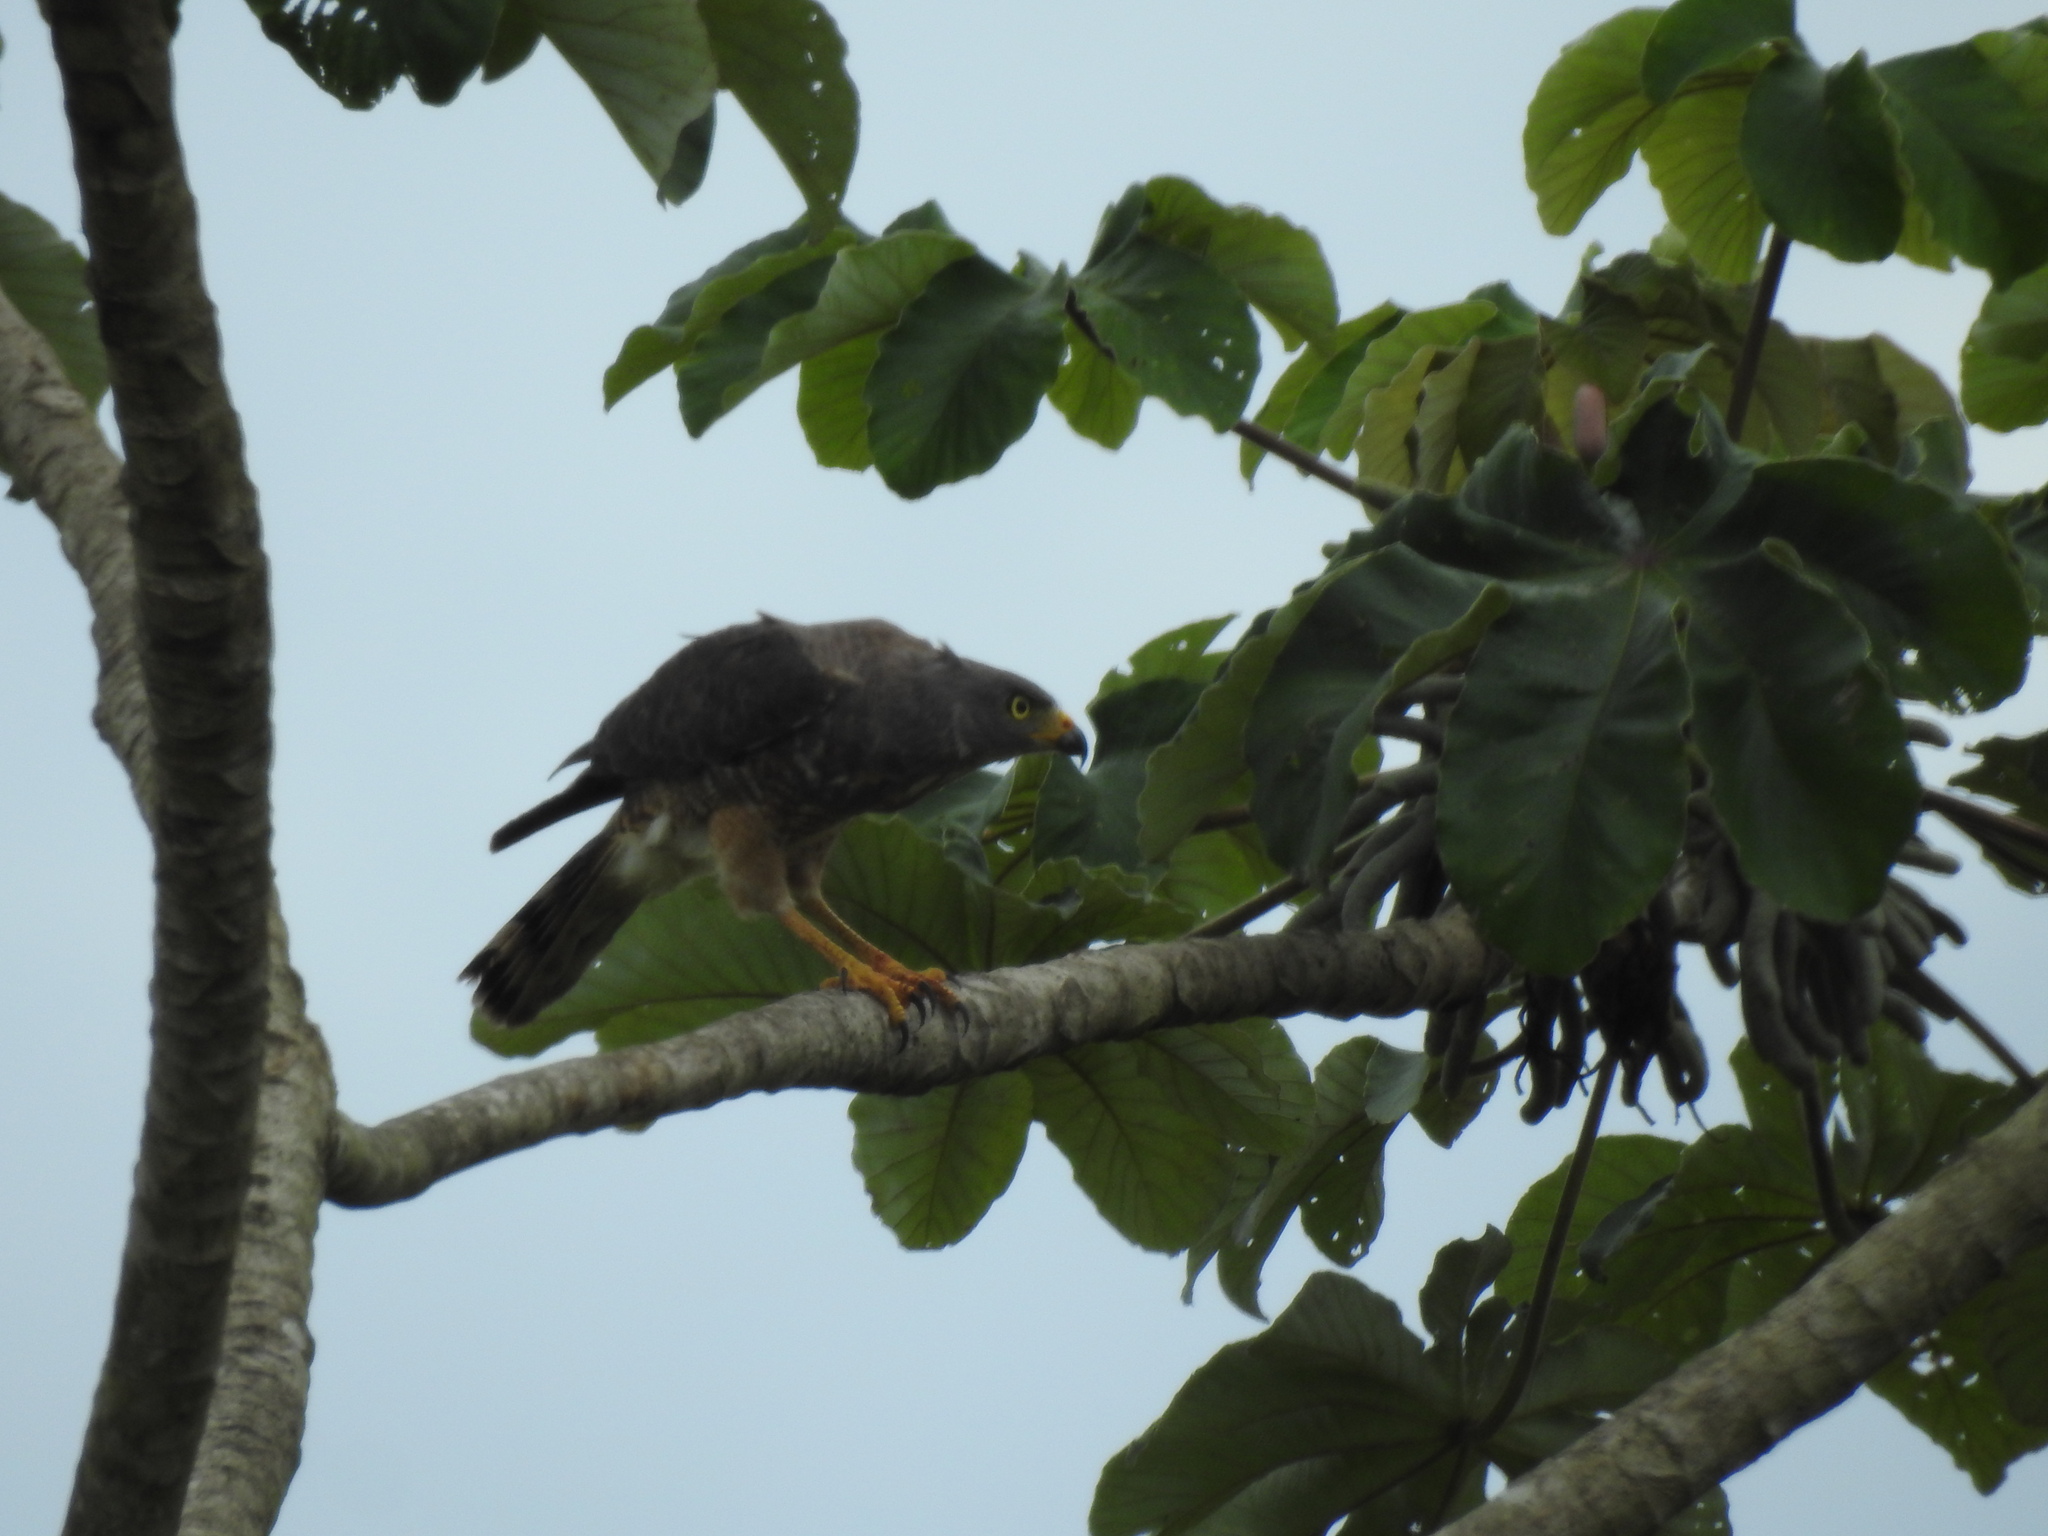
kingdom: Animalia
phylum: Chordata
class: Aves
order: Accipitriformes
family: Accipitridae
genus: Rupornis
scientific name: Rupornis magnirostris
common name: Roadside hawk
